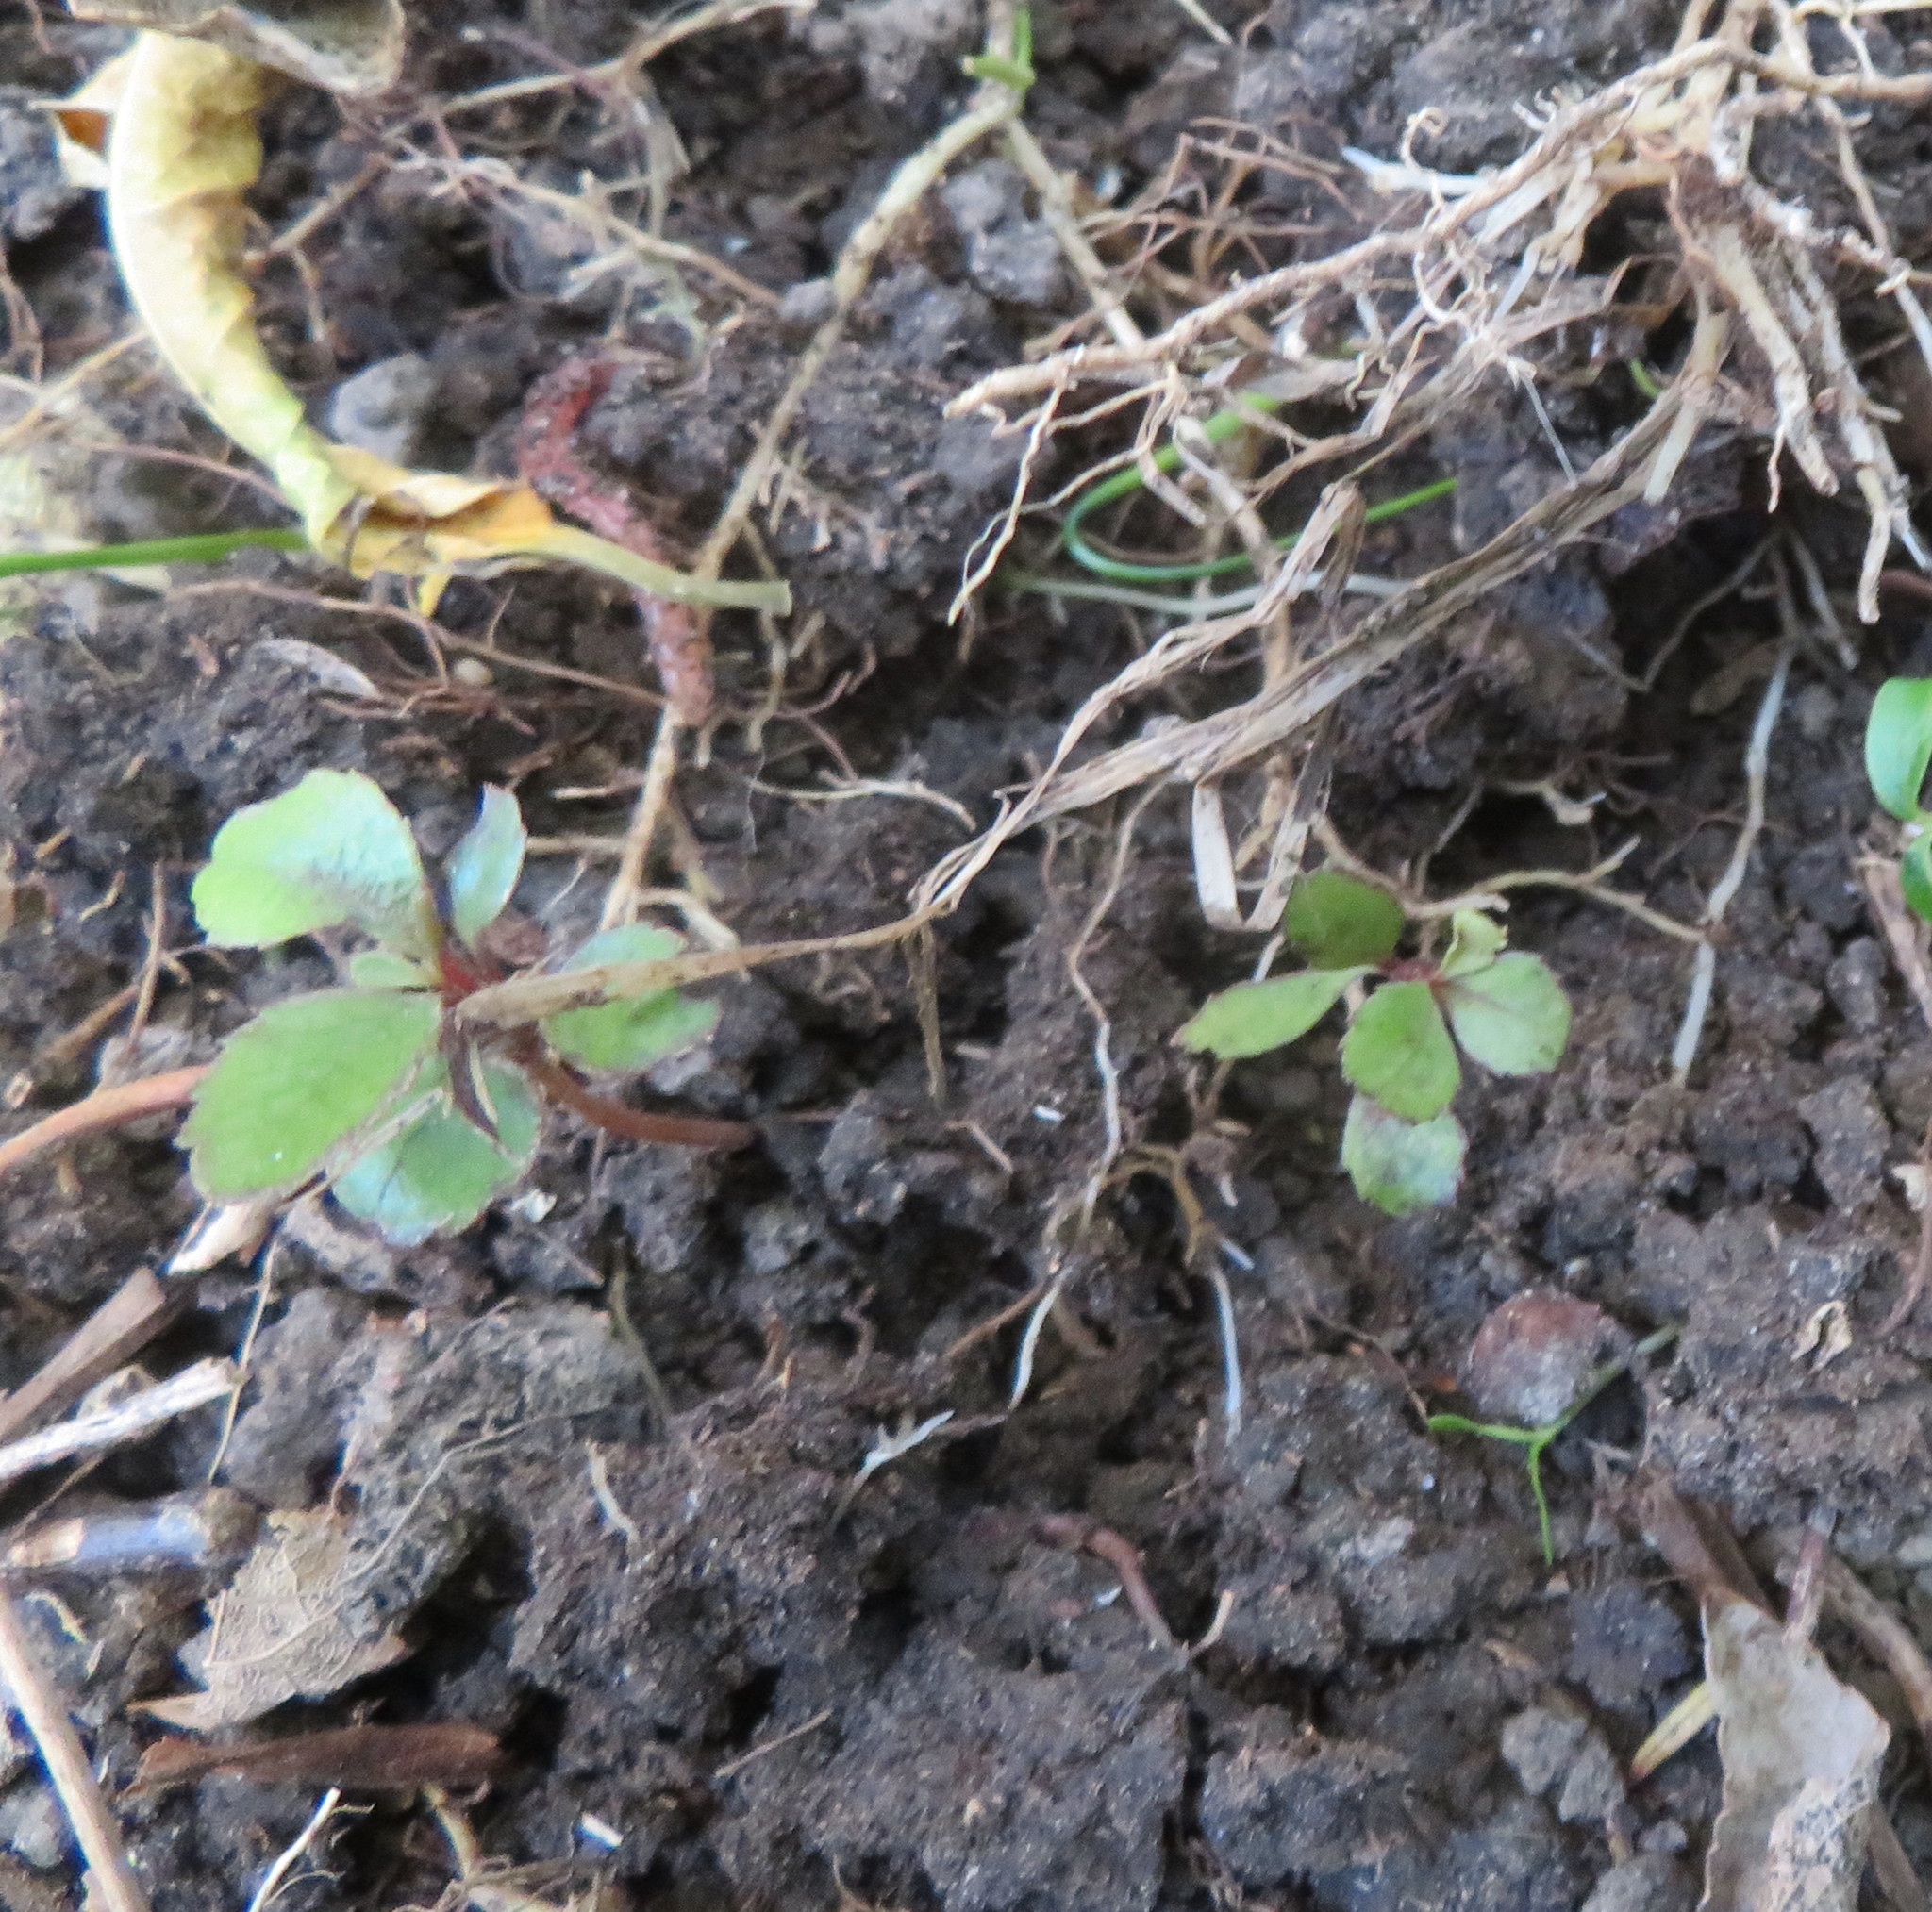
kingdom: Plantae
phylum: Tracheophyta
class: Magnoliopsida
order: Ericales
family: Primulaceae
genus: Myrsine
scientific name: Myrsine australis
